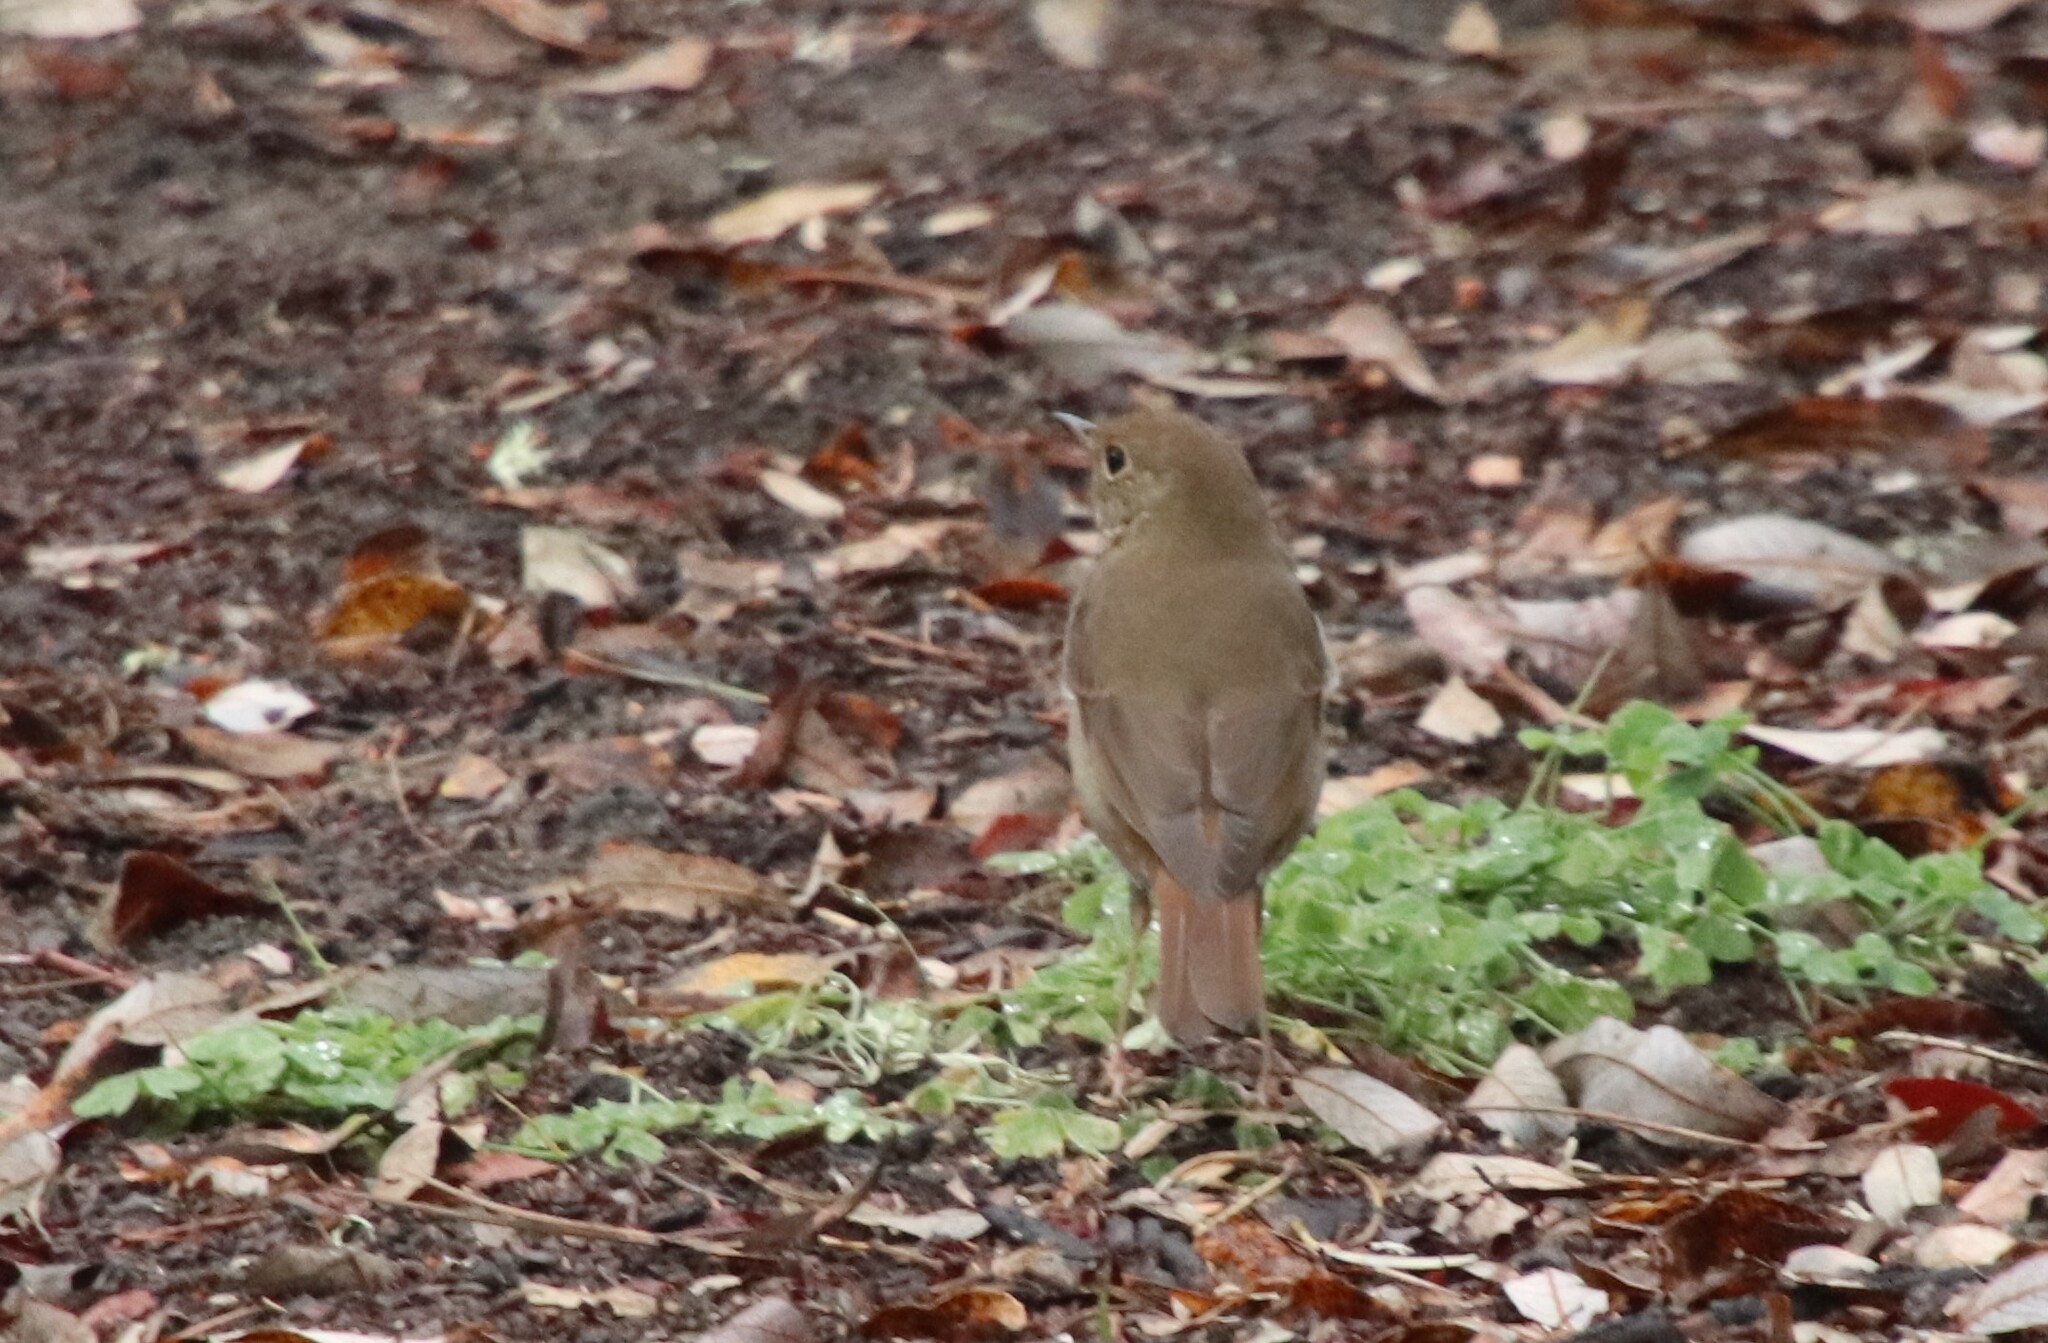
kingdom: Animalia
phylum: Chordata
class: Aves
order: Passeriformes
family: Turdidae
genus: Catharus
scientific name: Catharus guttatus
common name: Hermit thrush
